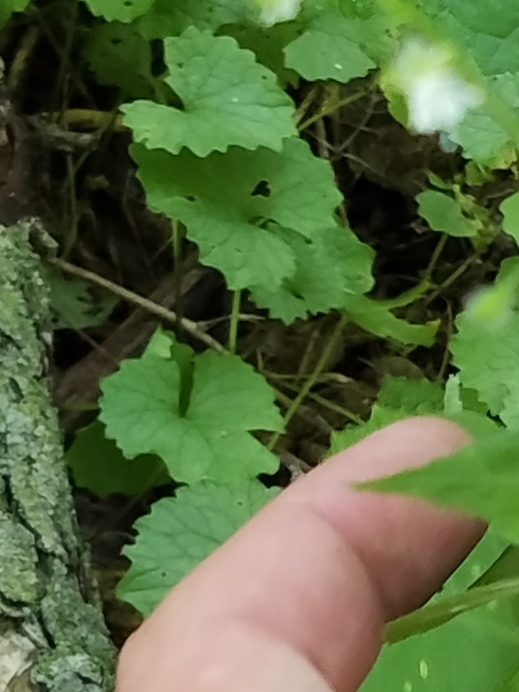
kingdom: Plantae
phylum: Tracheophyta
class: Magnoliopsida
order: Brassicales
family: Brassicaceae
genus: Alliaria
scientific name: Alliaria petiolata
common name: Garlic mustard
